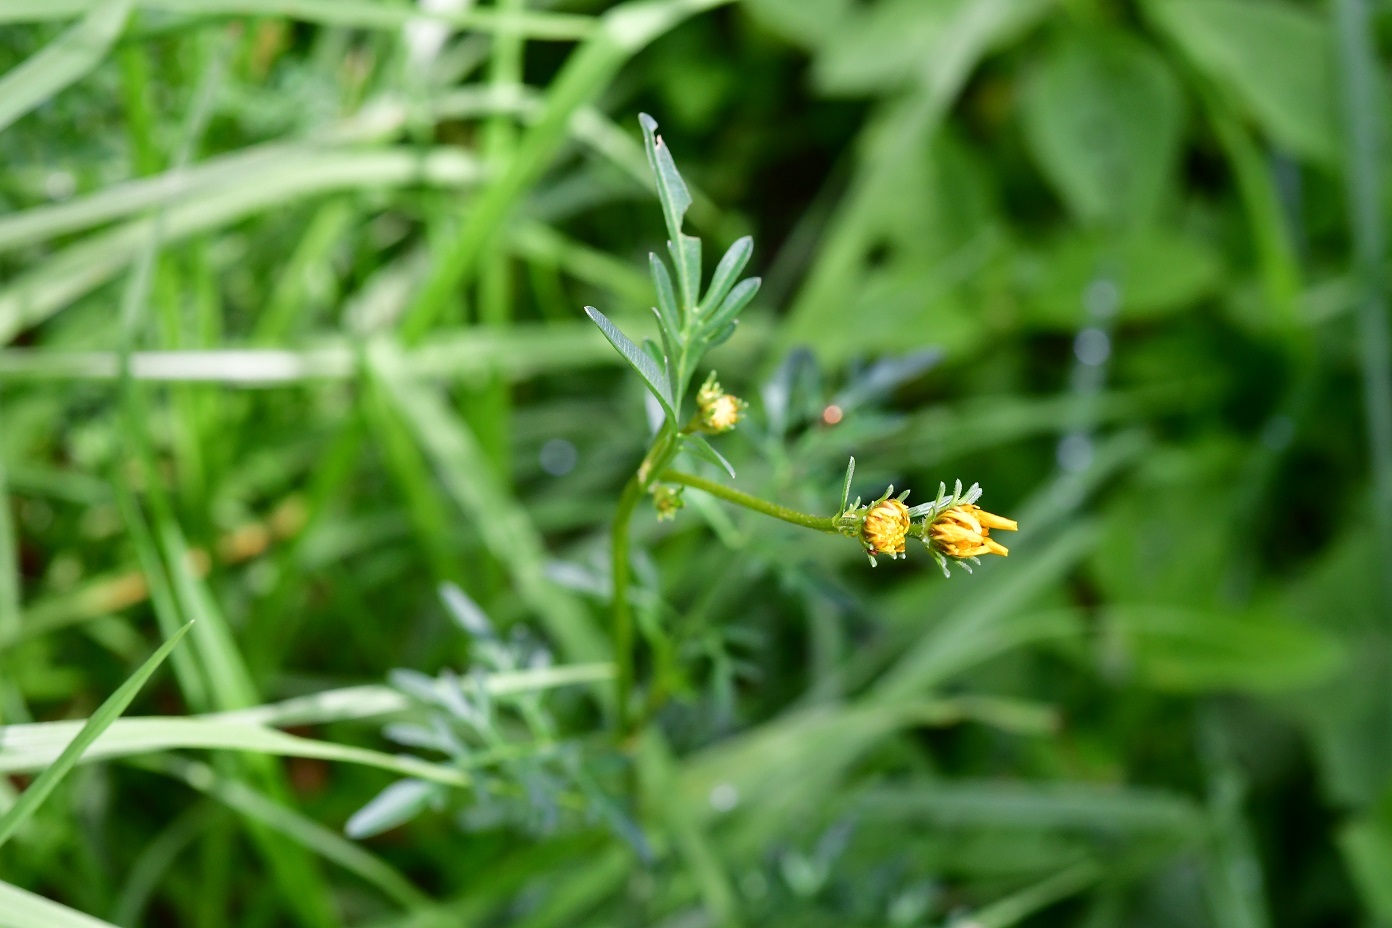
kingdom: Plantae
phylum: Tracheophyta
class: Magnoliopsida
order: Asterales
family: Asteraceae
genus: Bidens
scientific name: Bidens triplinervia
